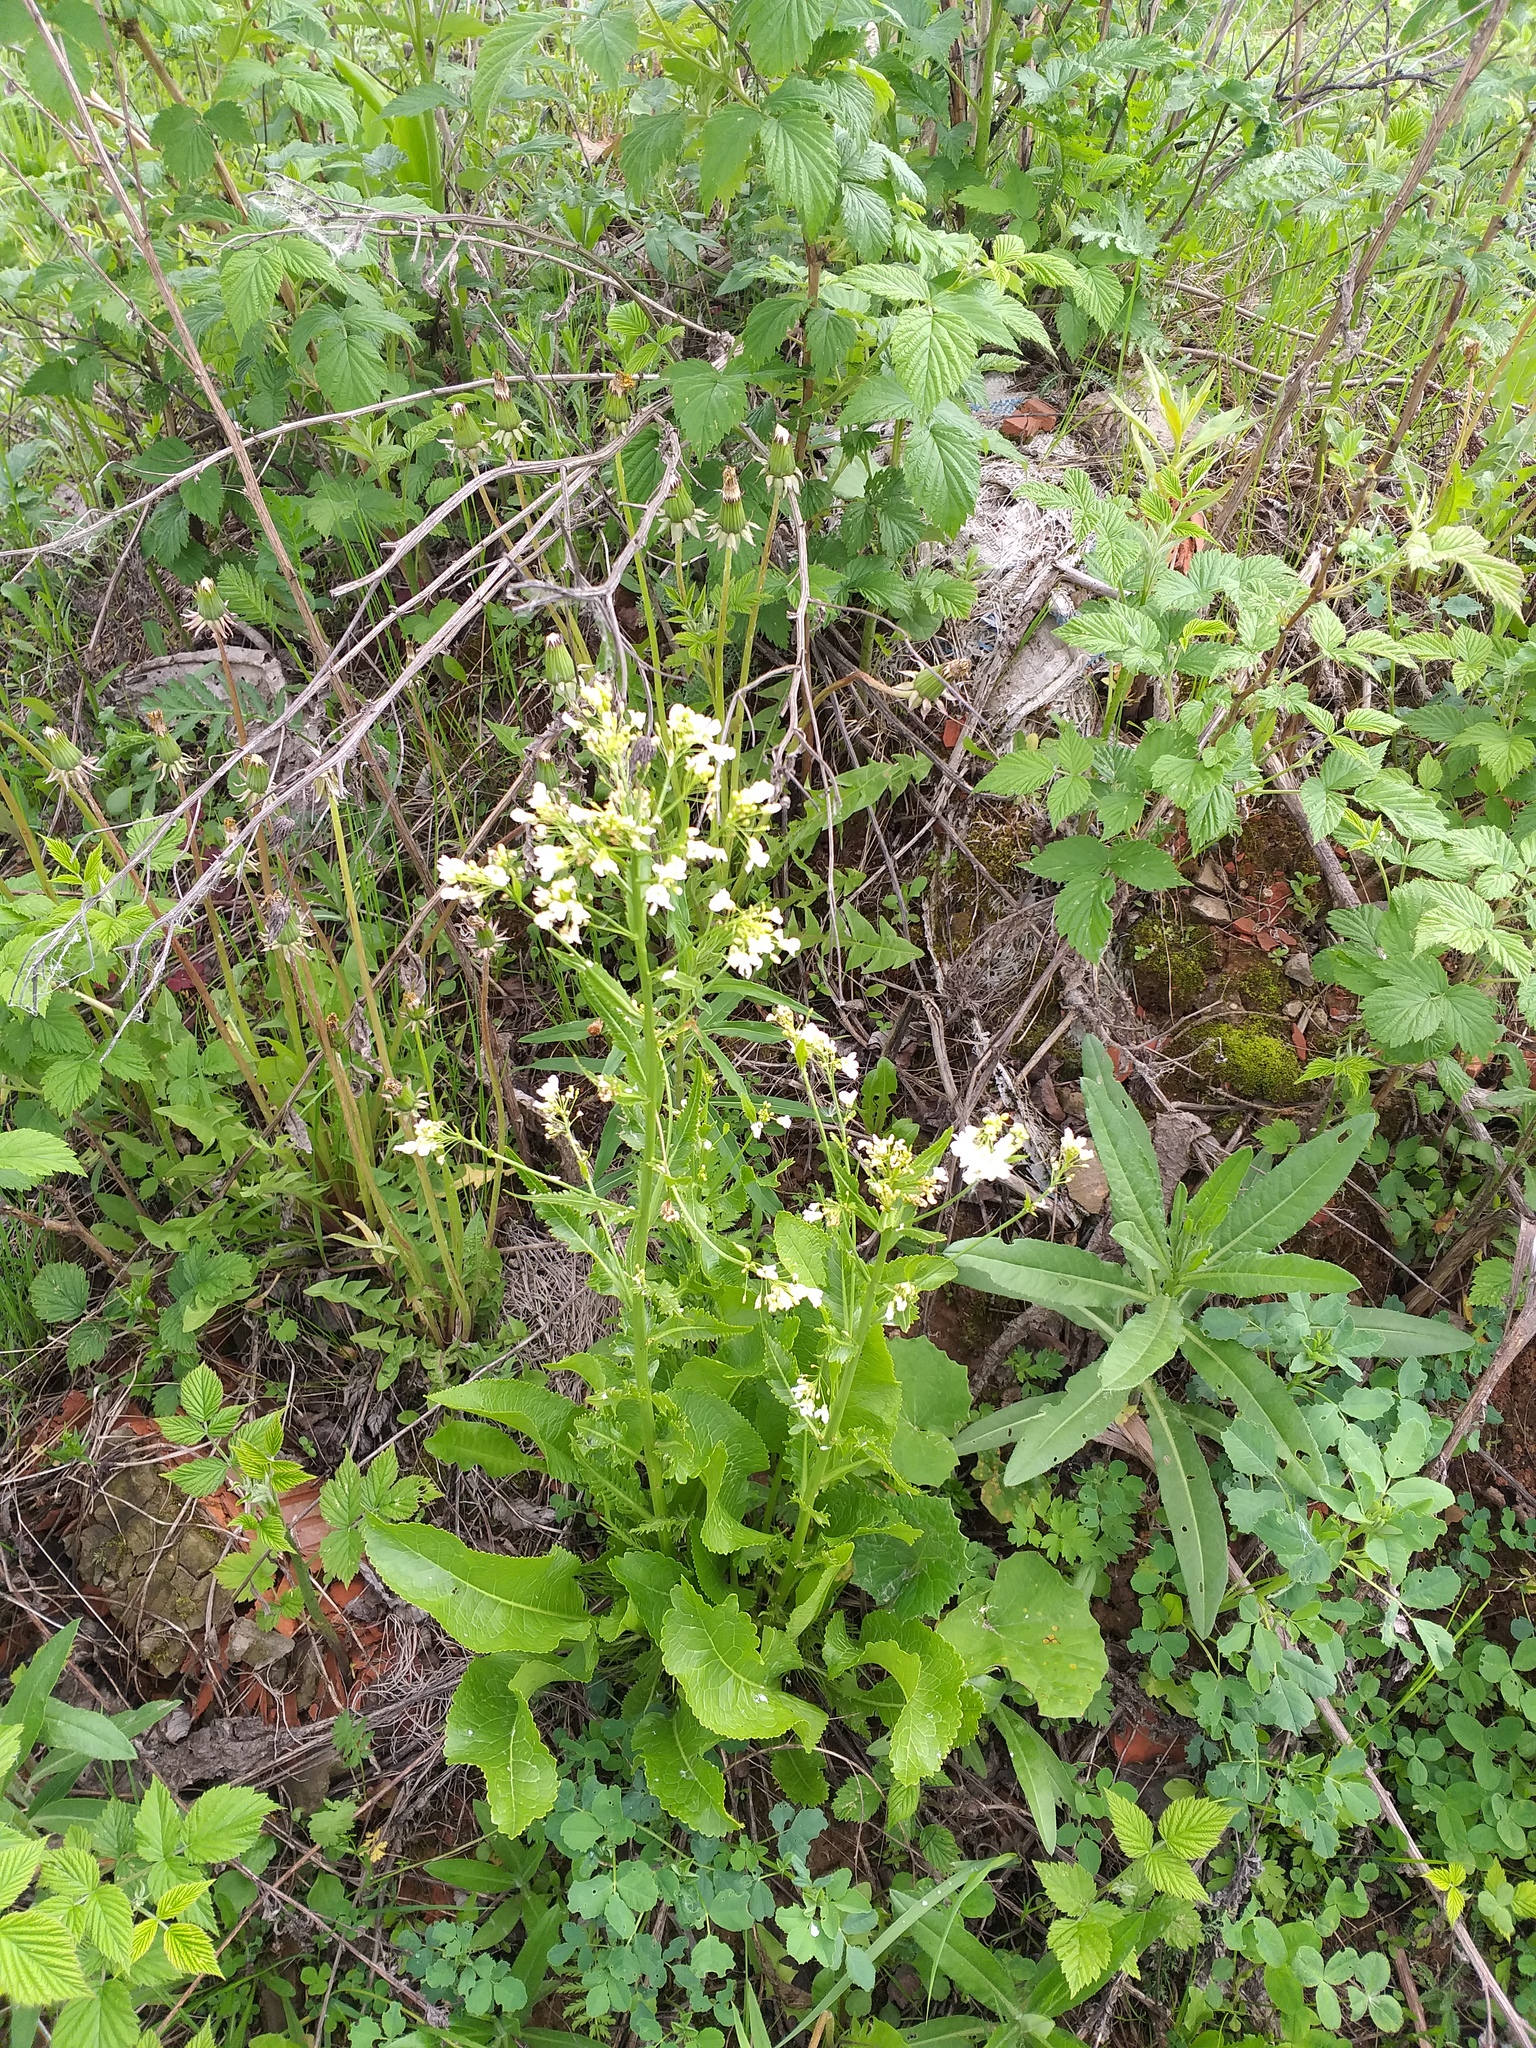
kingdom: Plantae
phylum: Tracheophyta
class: Magnoliopsida
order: Brassicales
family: Brassicaceae
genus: Armoracia
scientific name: Armoracia rusticana
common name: Horseradish
